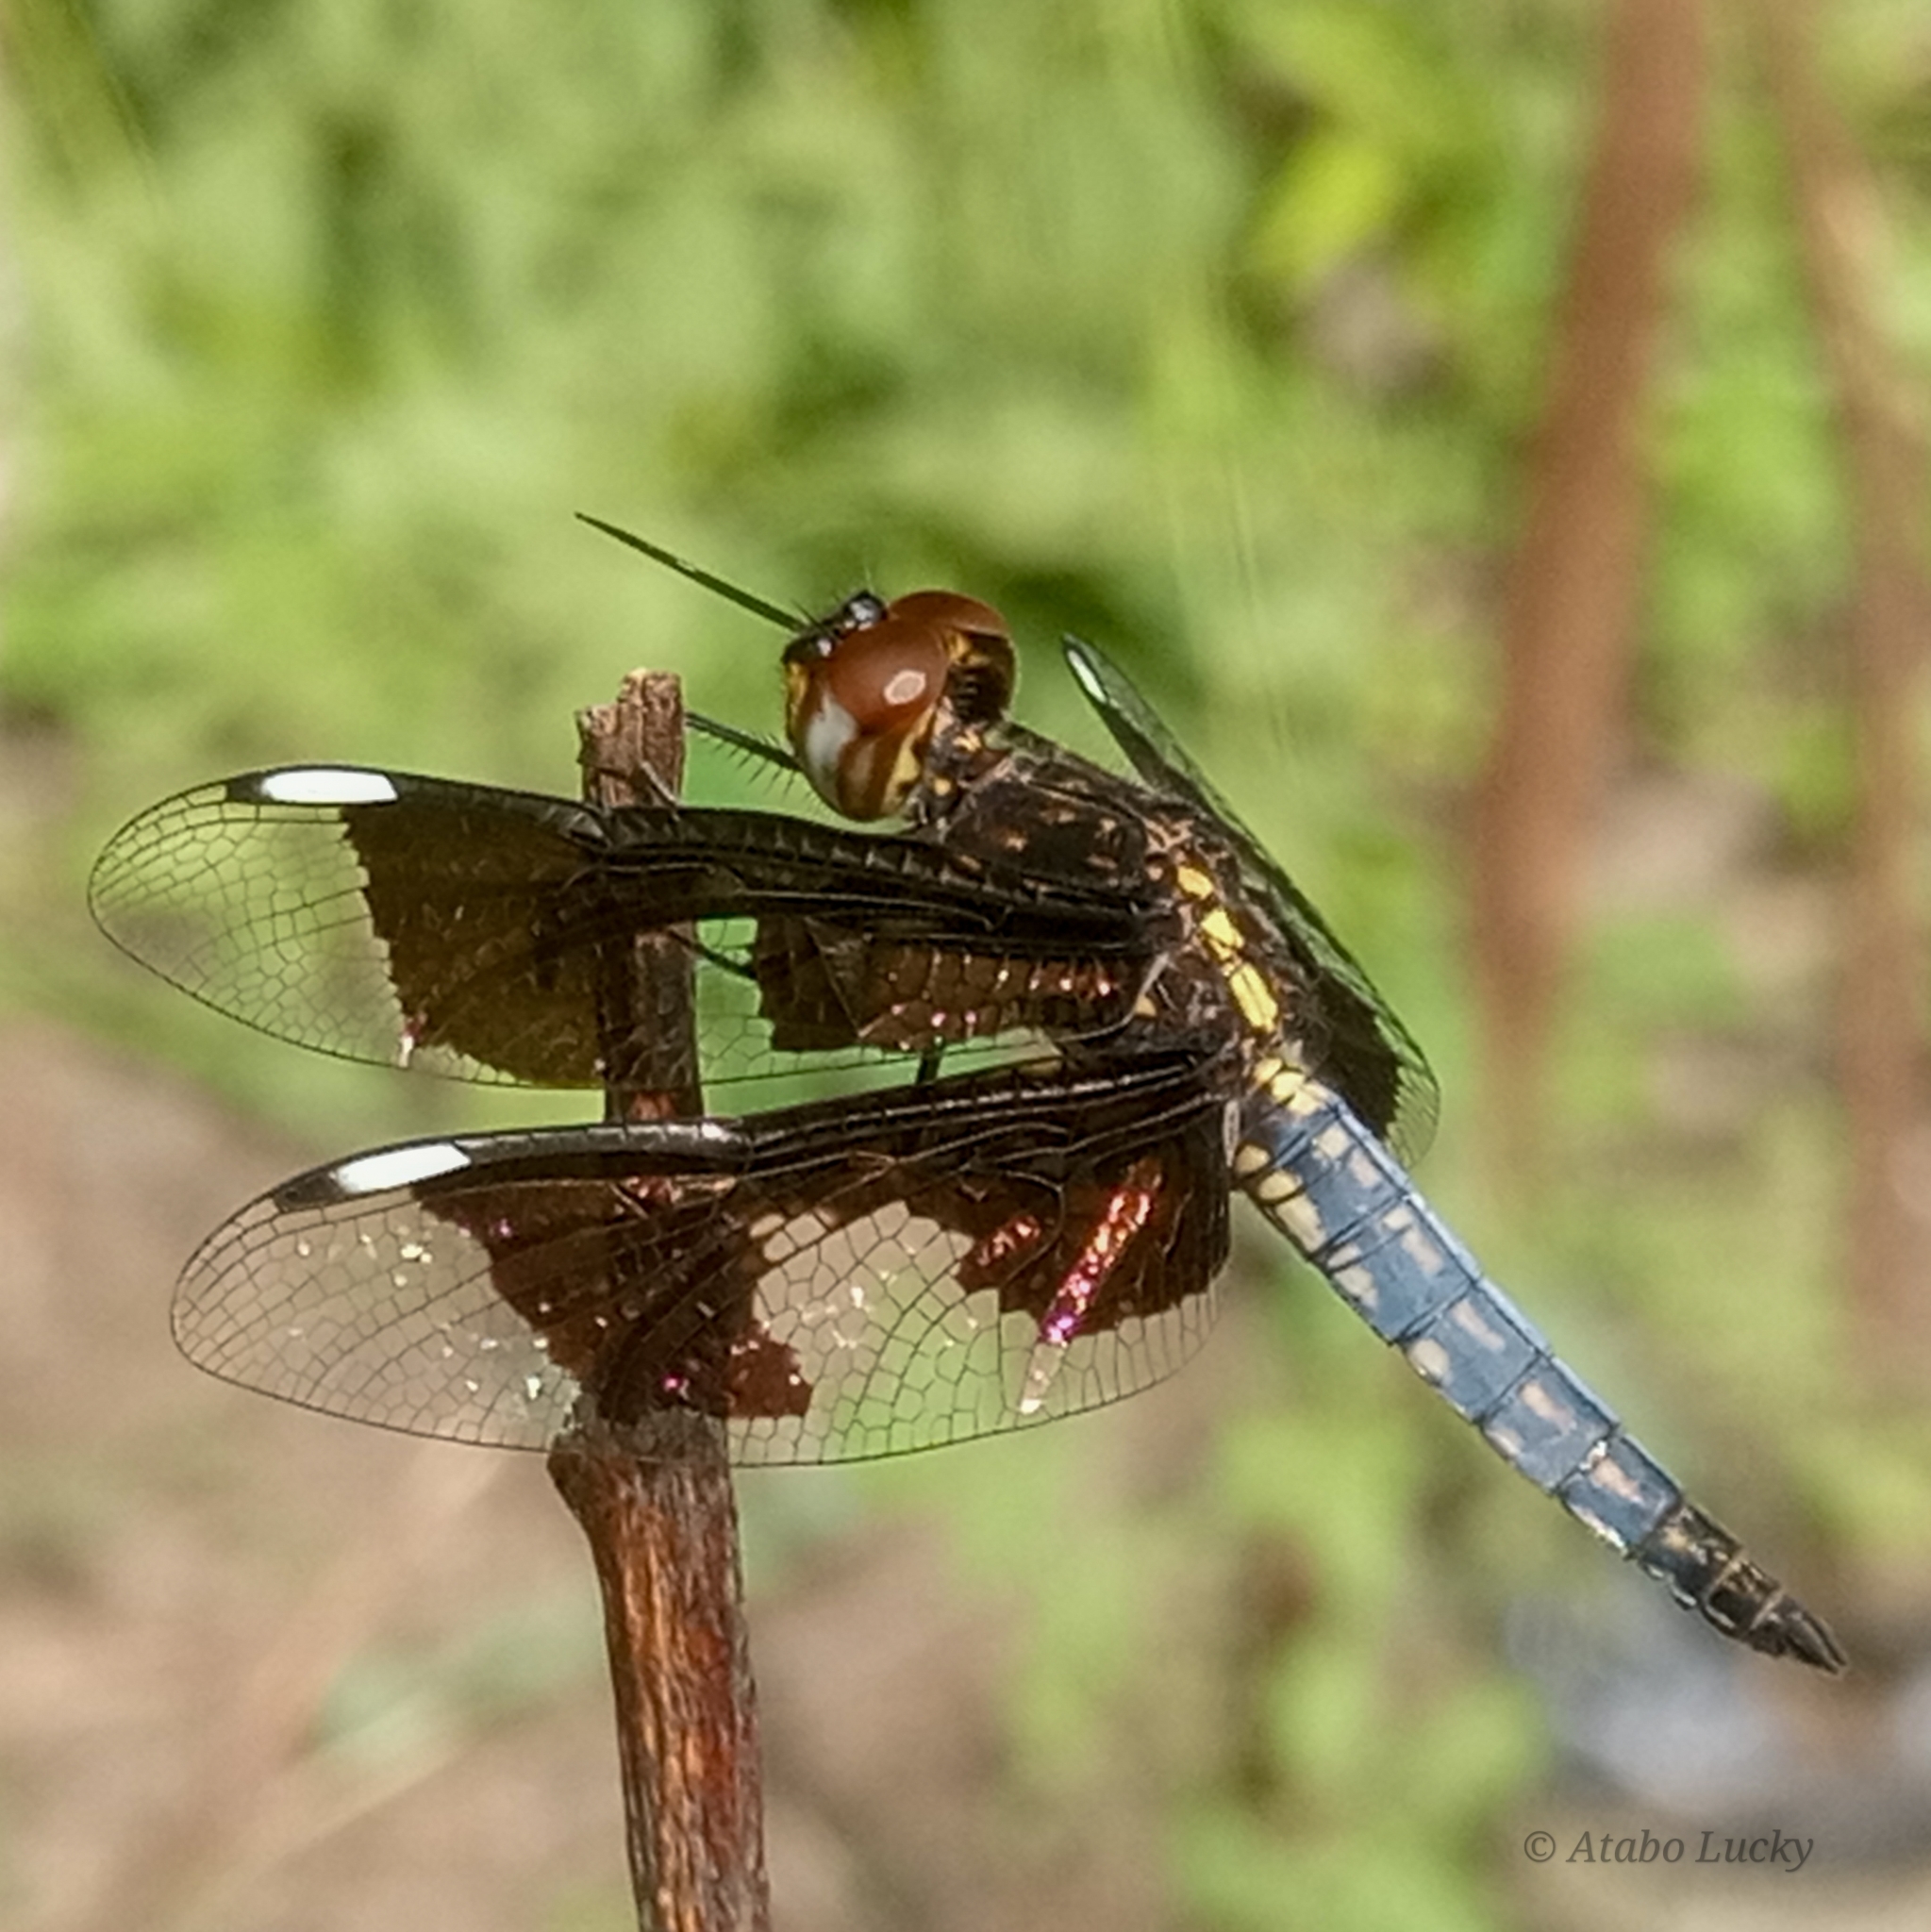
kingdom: Animalia
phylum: Arthropoda
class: Insecta
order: Odonata
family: Libellulidae
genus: Palpopleura
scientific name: Palpopleura portia
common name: Portia widow
